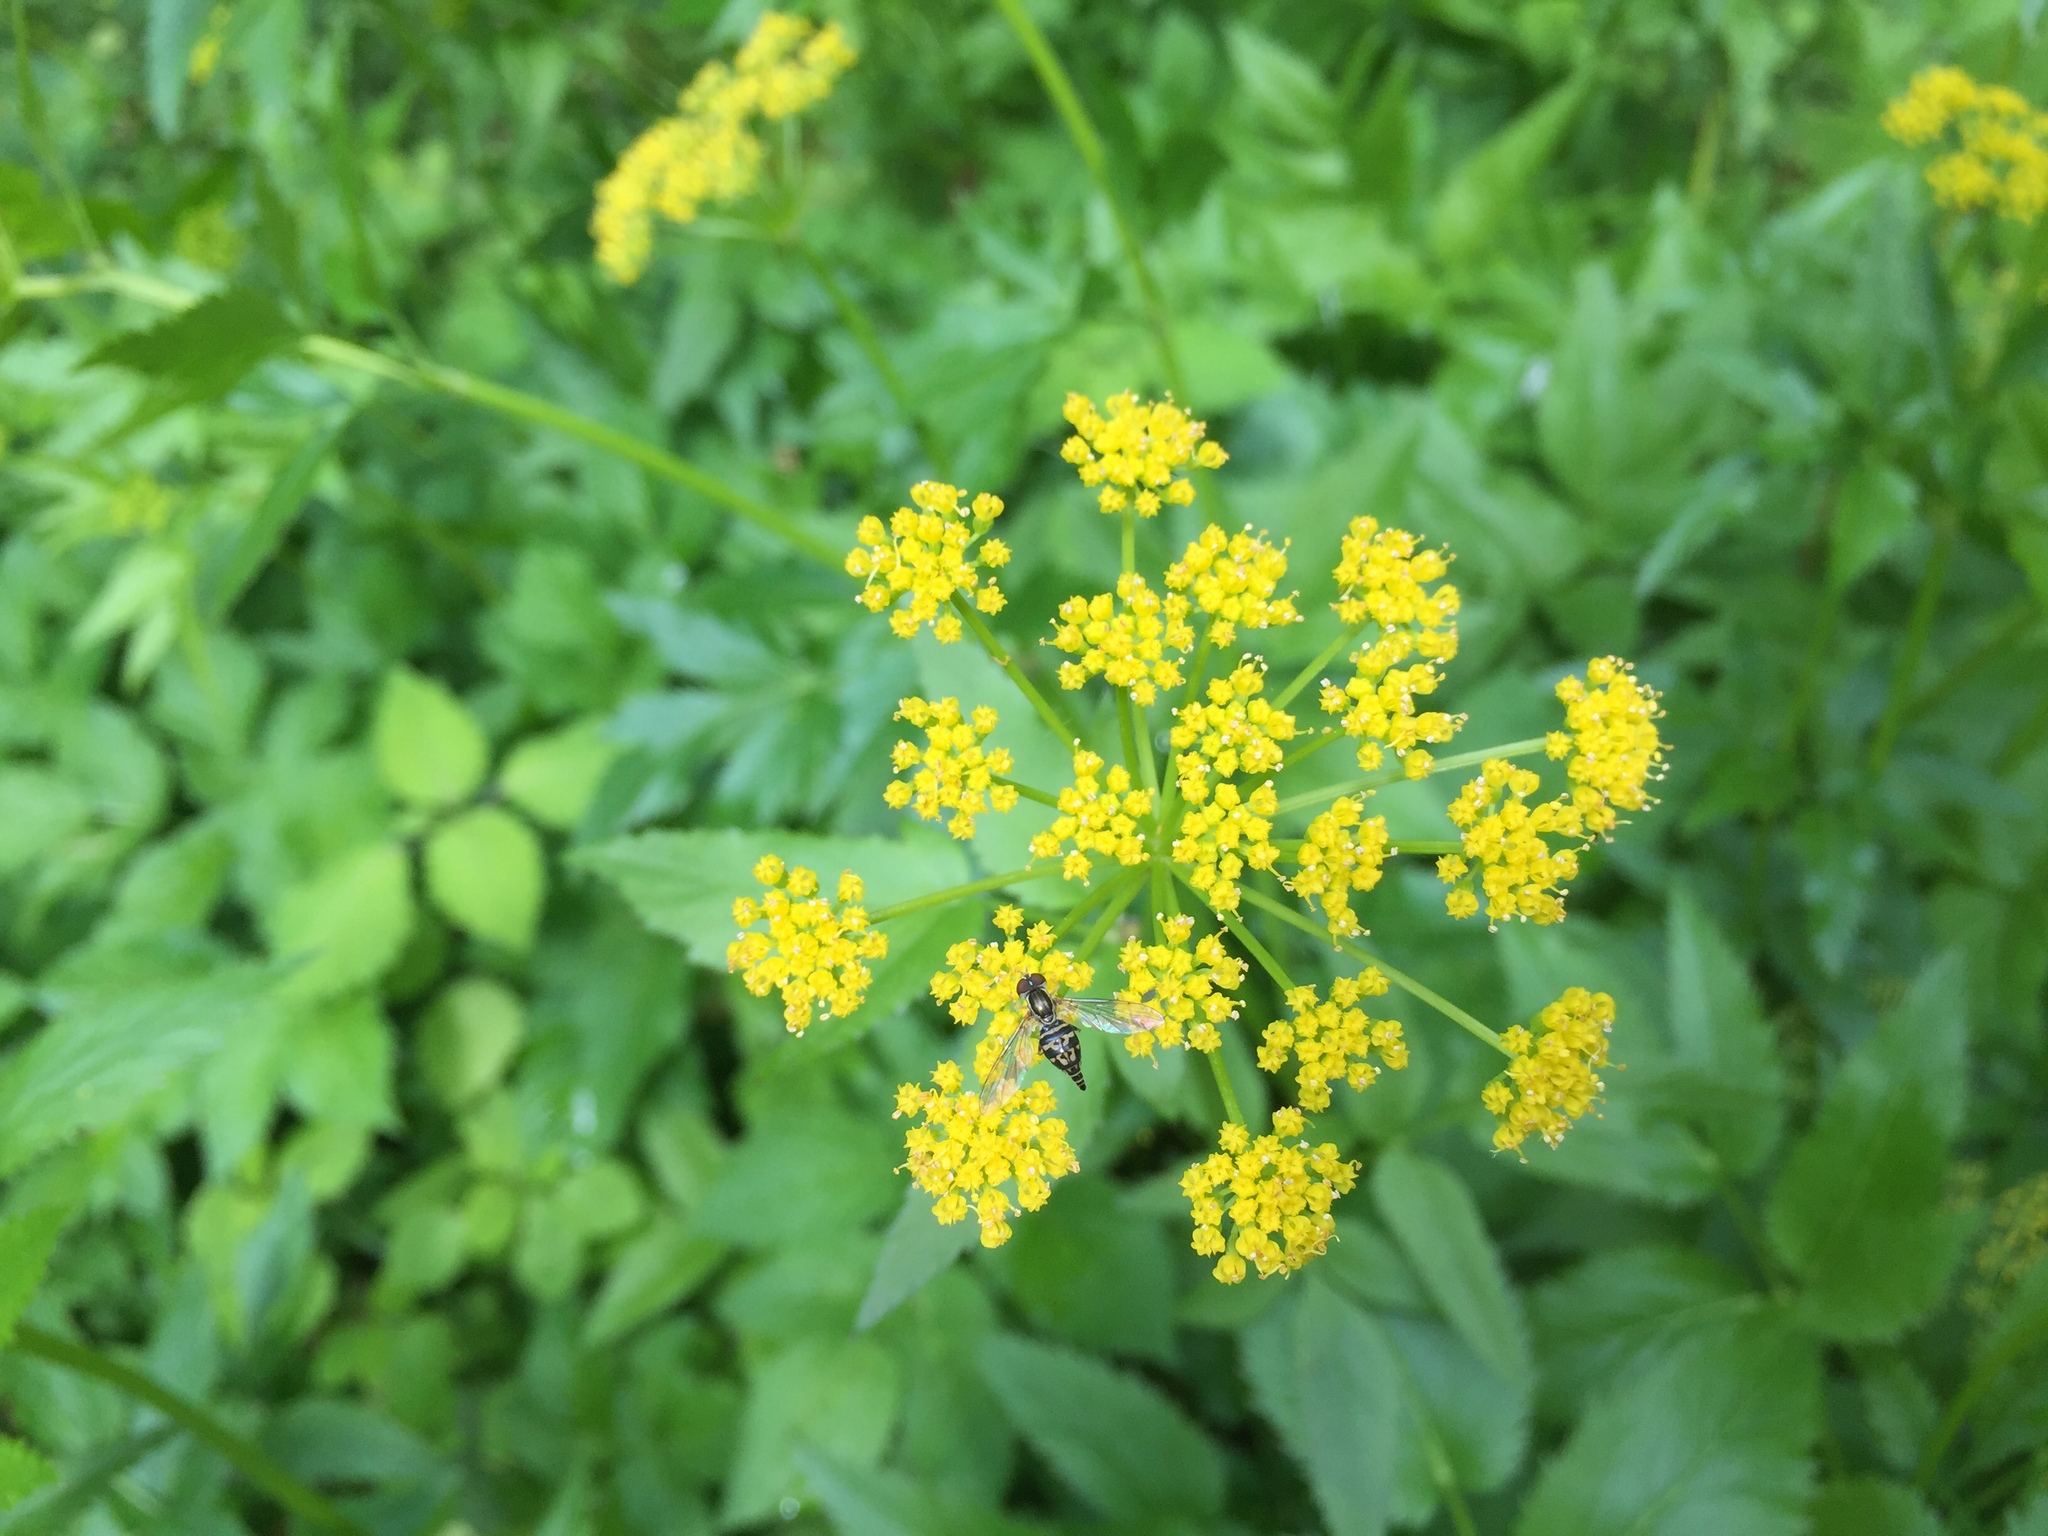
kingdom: Plantae
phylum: Tracheophyta
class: Magnoliopsida
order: Apiales
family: Apiaceae
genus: Zizia
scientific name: Zizia aurea
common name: Golden alexanders
